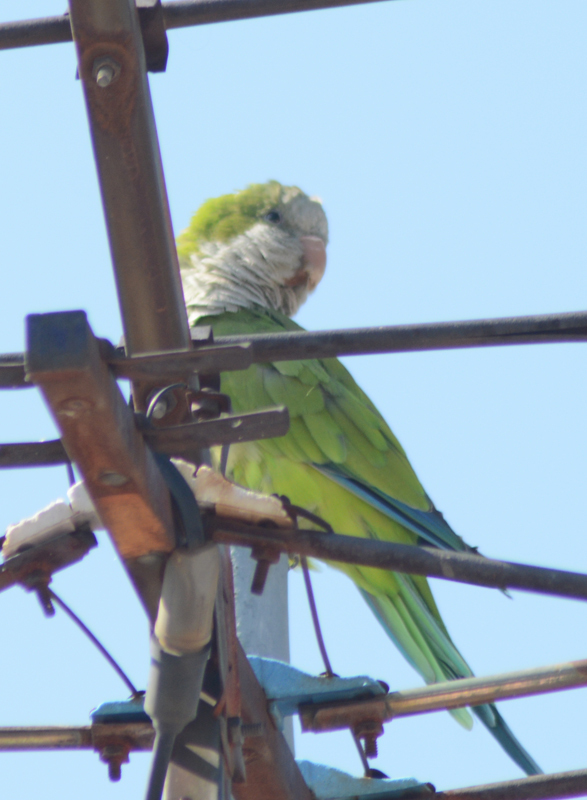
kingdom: Animalia
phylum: Chordata
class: Aves
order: Psittaciformes
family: Psittacidae
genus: Myiopsitta
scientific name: Myiopsitta monachus
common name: Monk parakeet
